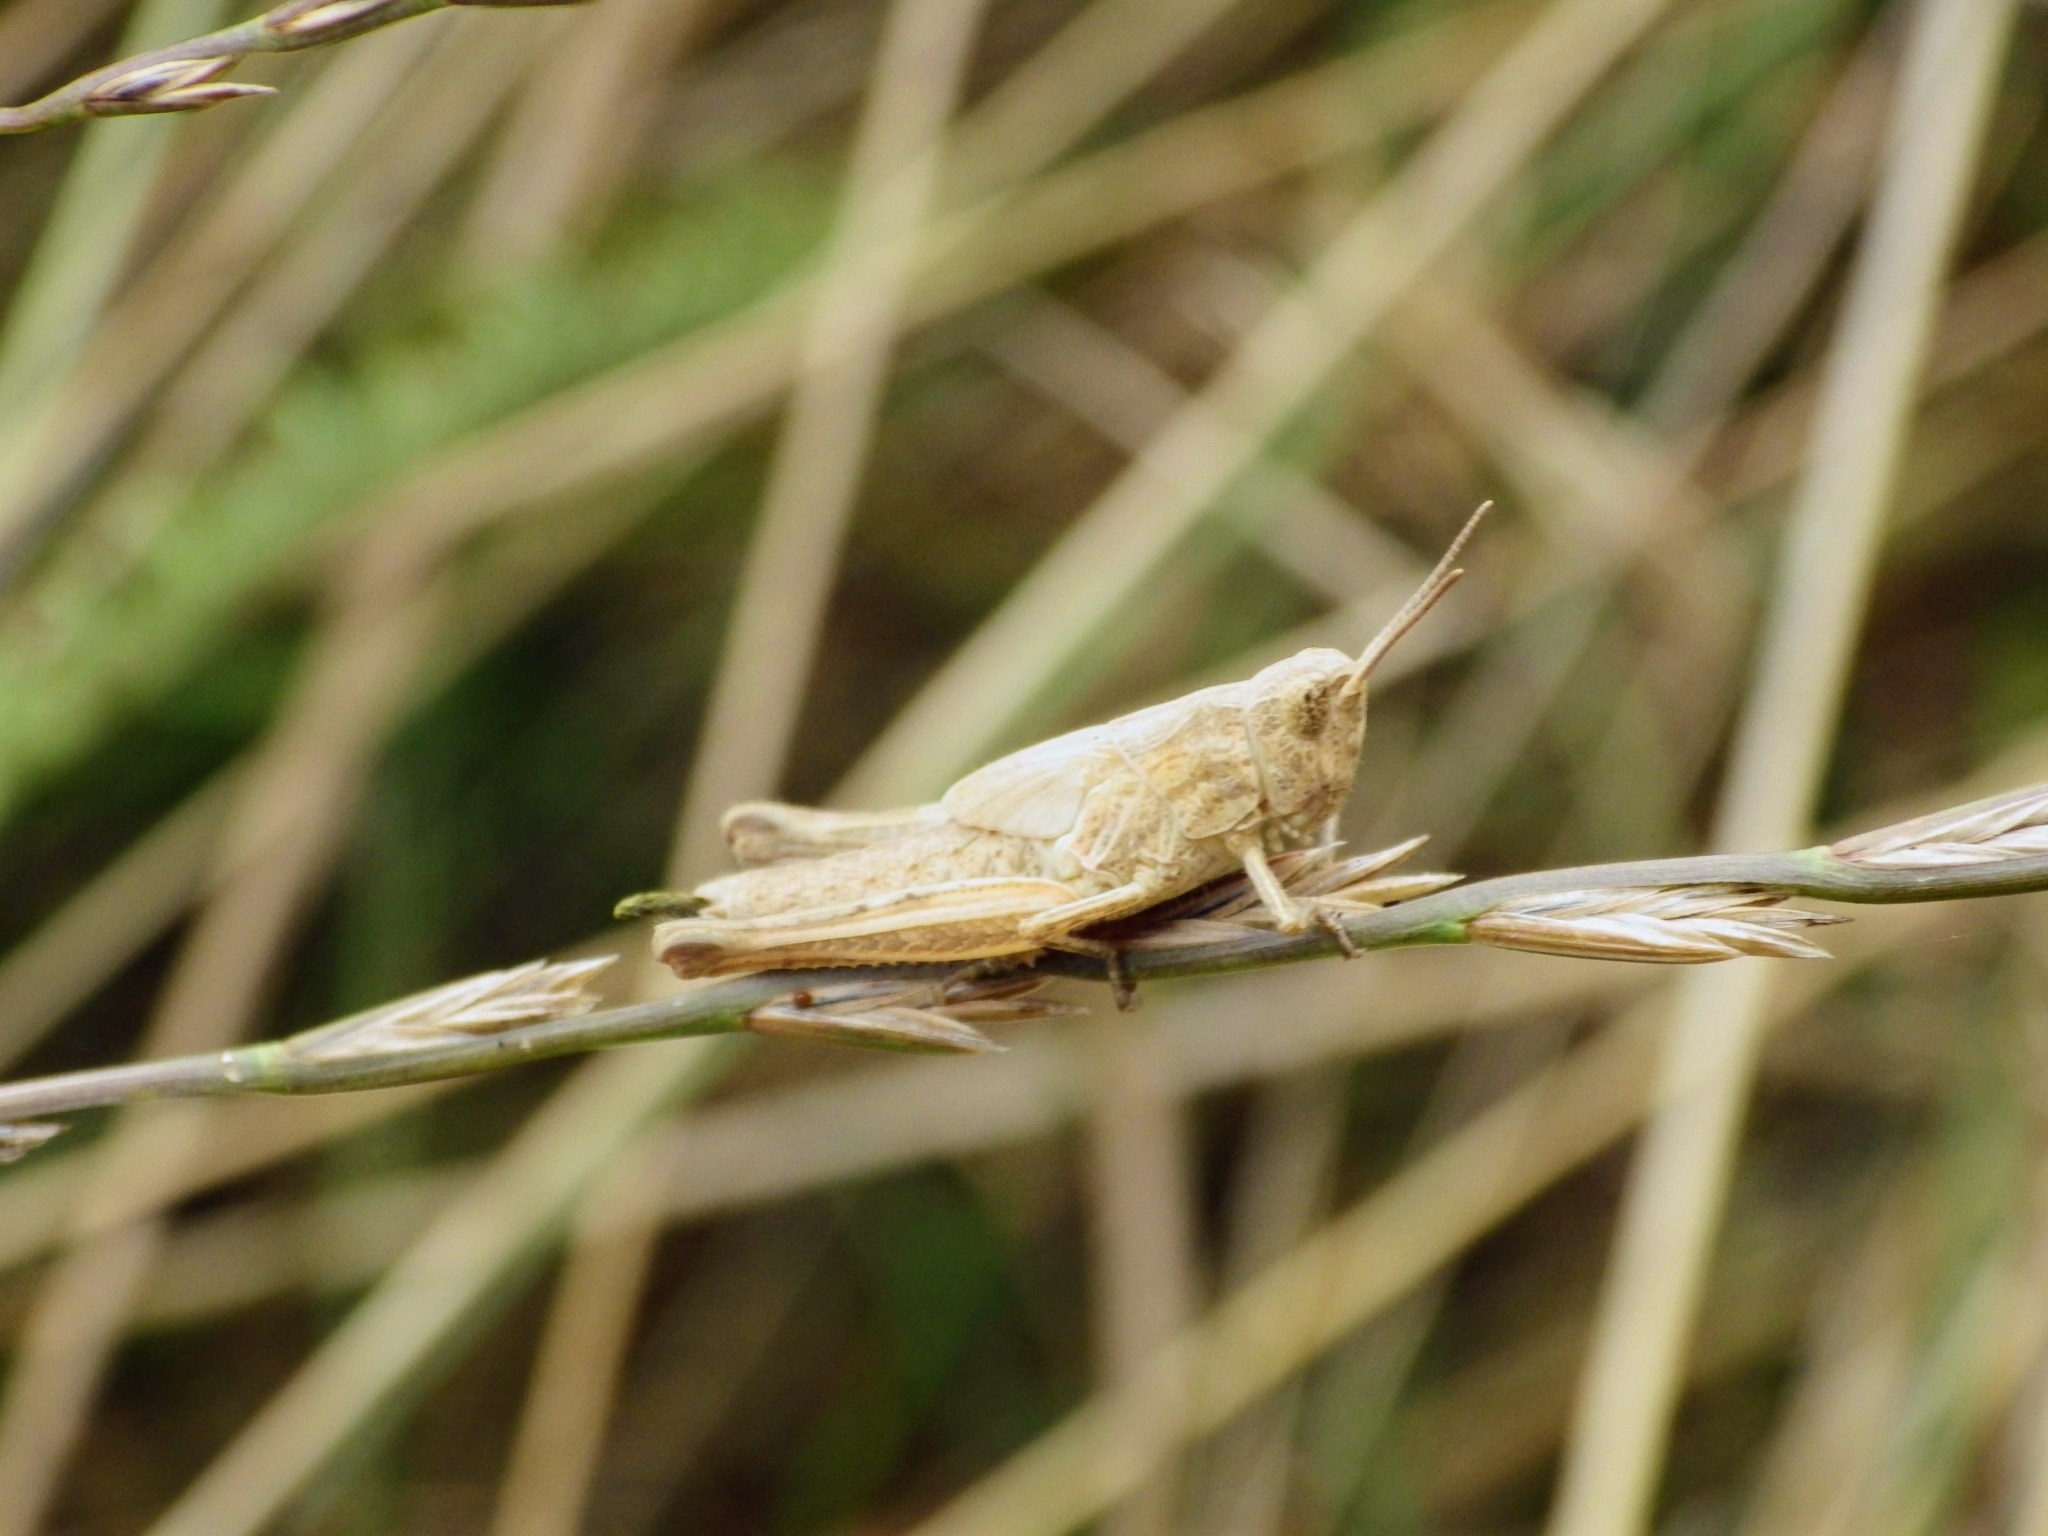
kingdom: Animalia
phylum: Arthropoda
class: Insecta
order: Orthoptera
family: Acrididae
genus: Chorthippus
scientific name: Chorthippus brunneus
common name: Field grasshopper
